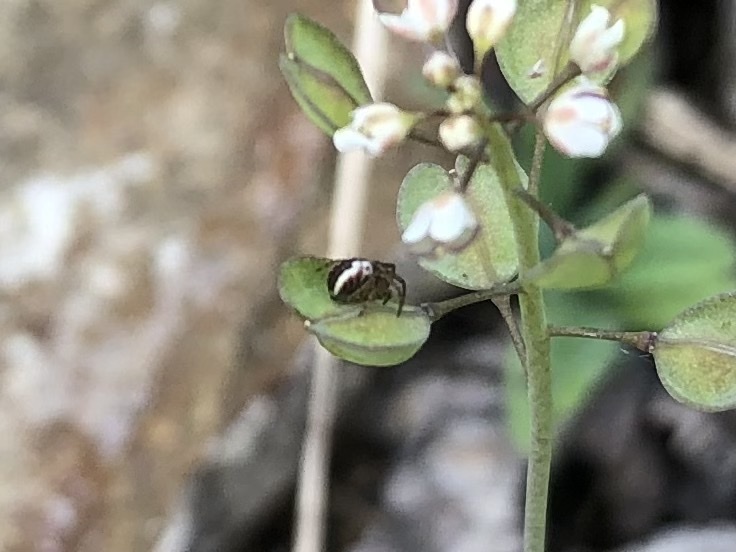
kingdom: Animalia
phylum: Arthropoda
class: Arachnida
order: Araneae
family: Araneidae
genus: Mangora
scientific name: Mangora acalypha
